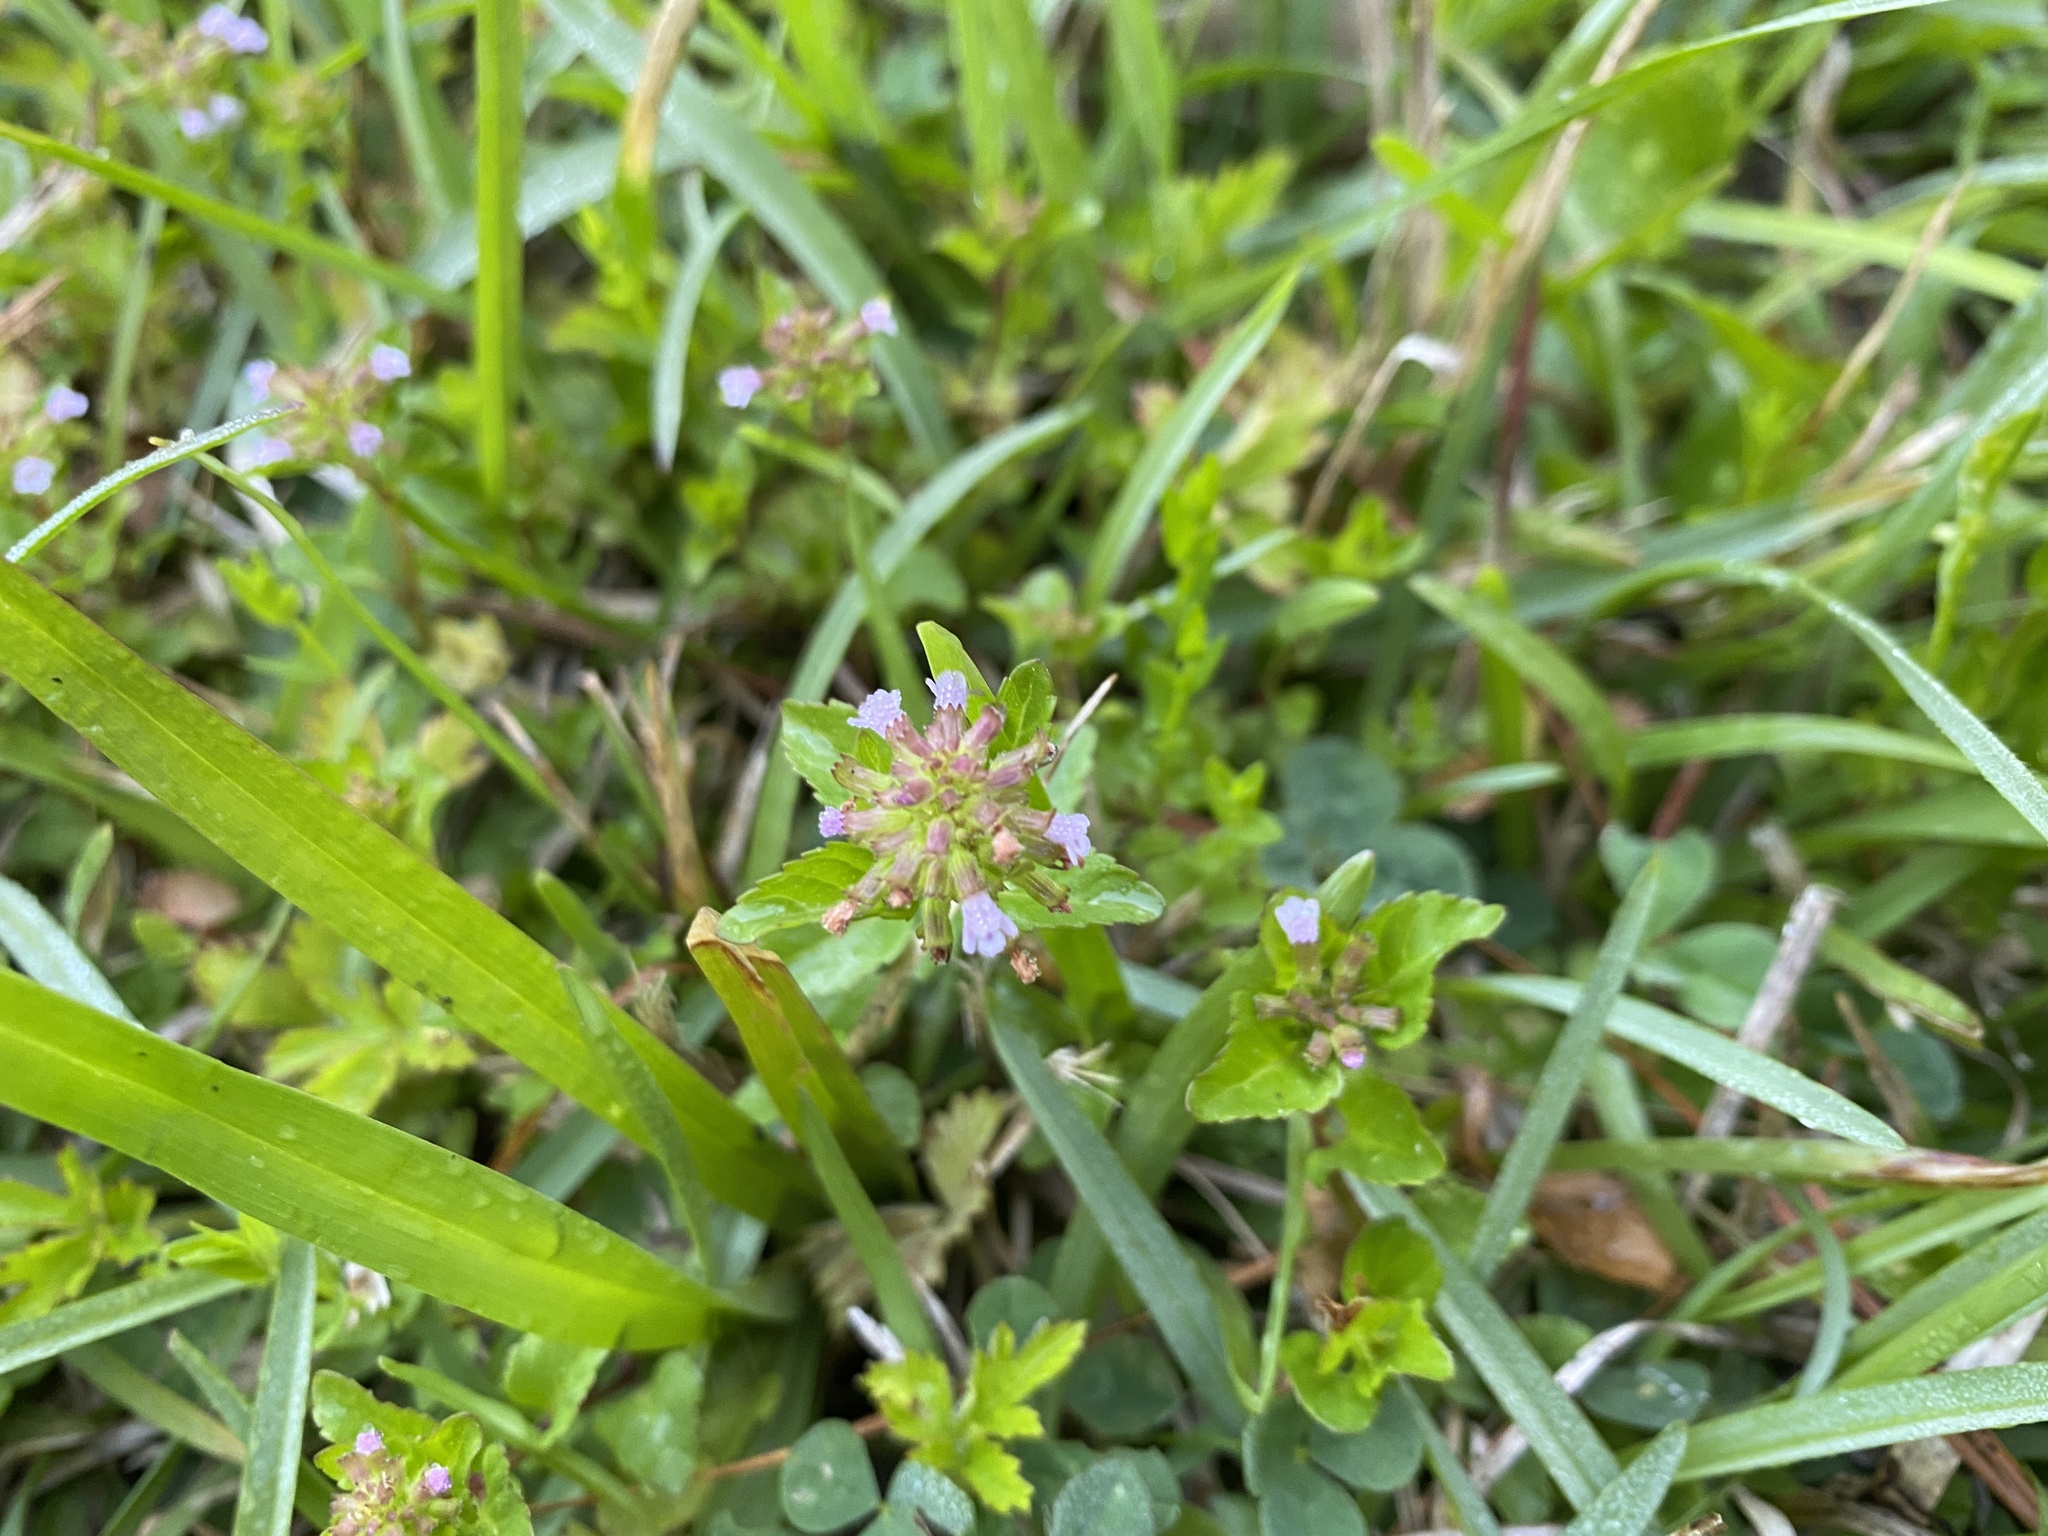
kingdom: Plantae
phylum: Tracheophyta
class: Magnoliopsida
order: Lamiales
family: Lamiaceae
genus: Clinopodium
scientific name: Clinopodium gracile
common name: Slender wild basil
